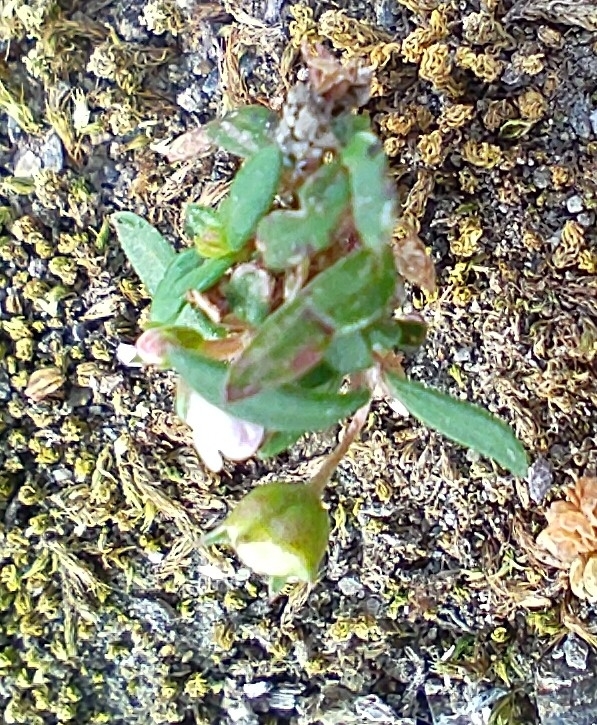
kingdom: Plantae
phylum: Tracheophyta
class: Magnoliopsida
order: Gentianales
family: Rubiaceae
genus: Oldenlandia
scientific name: Oldenlandia corymbosa
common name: Flat-top mille graines
